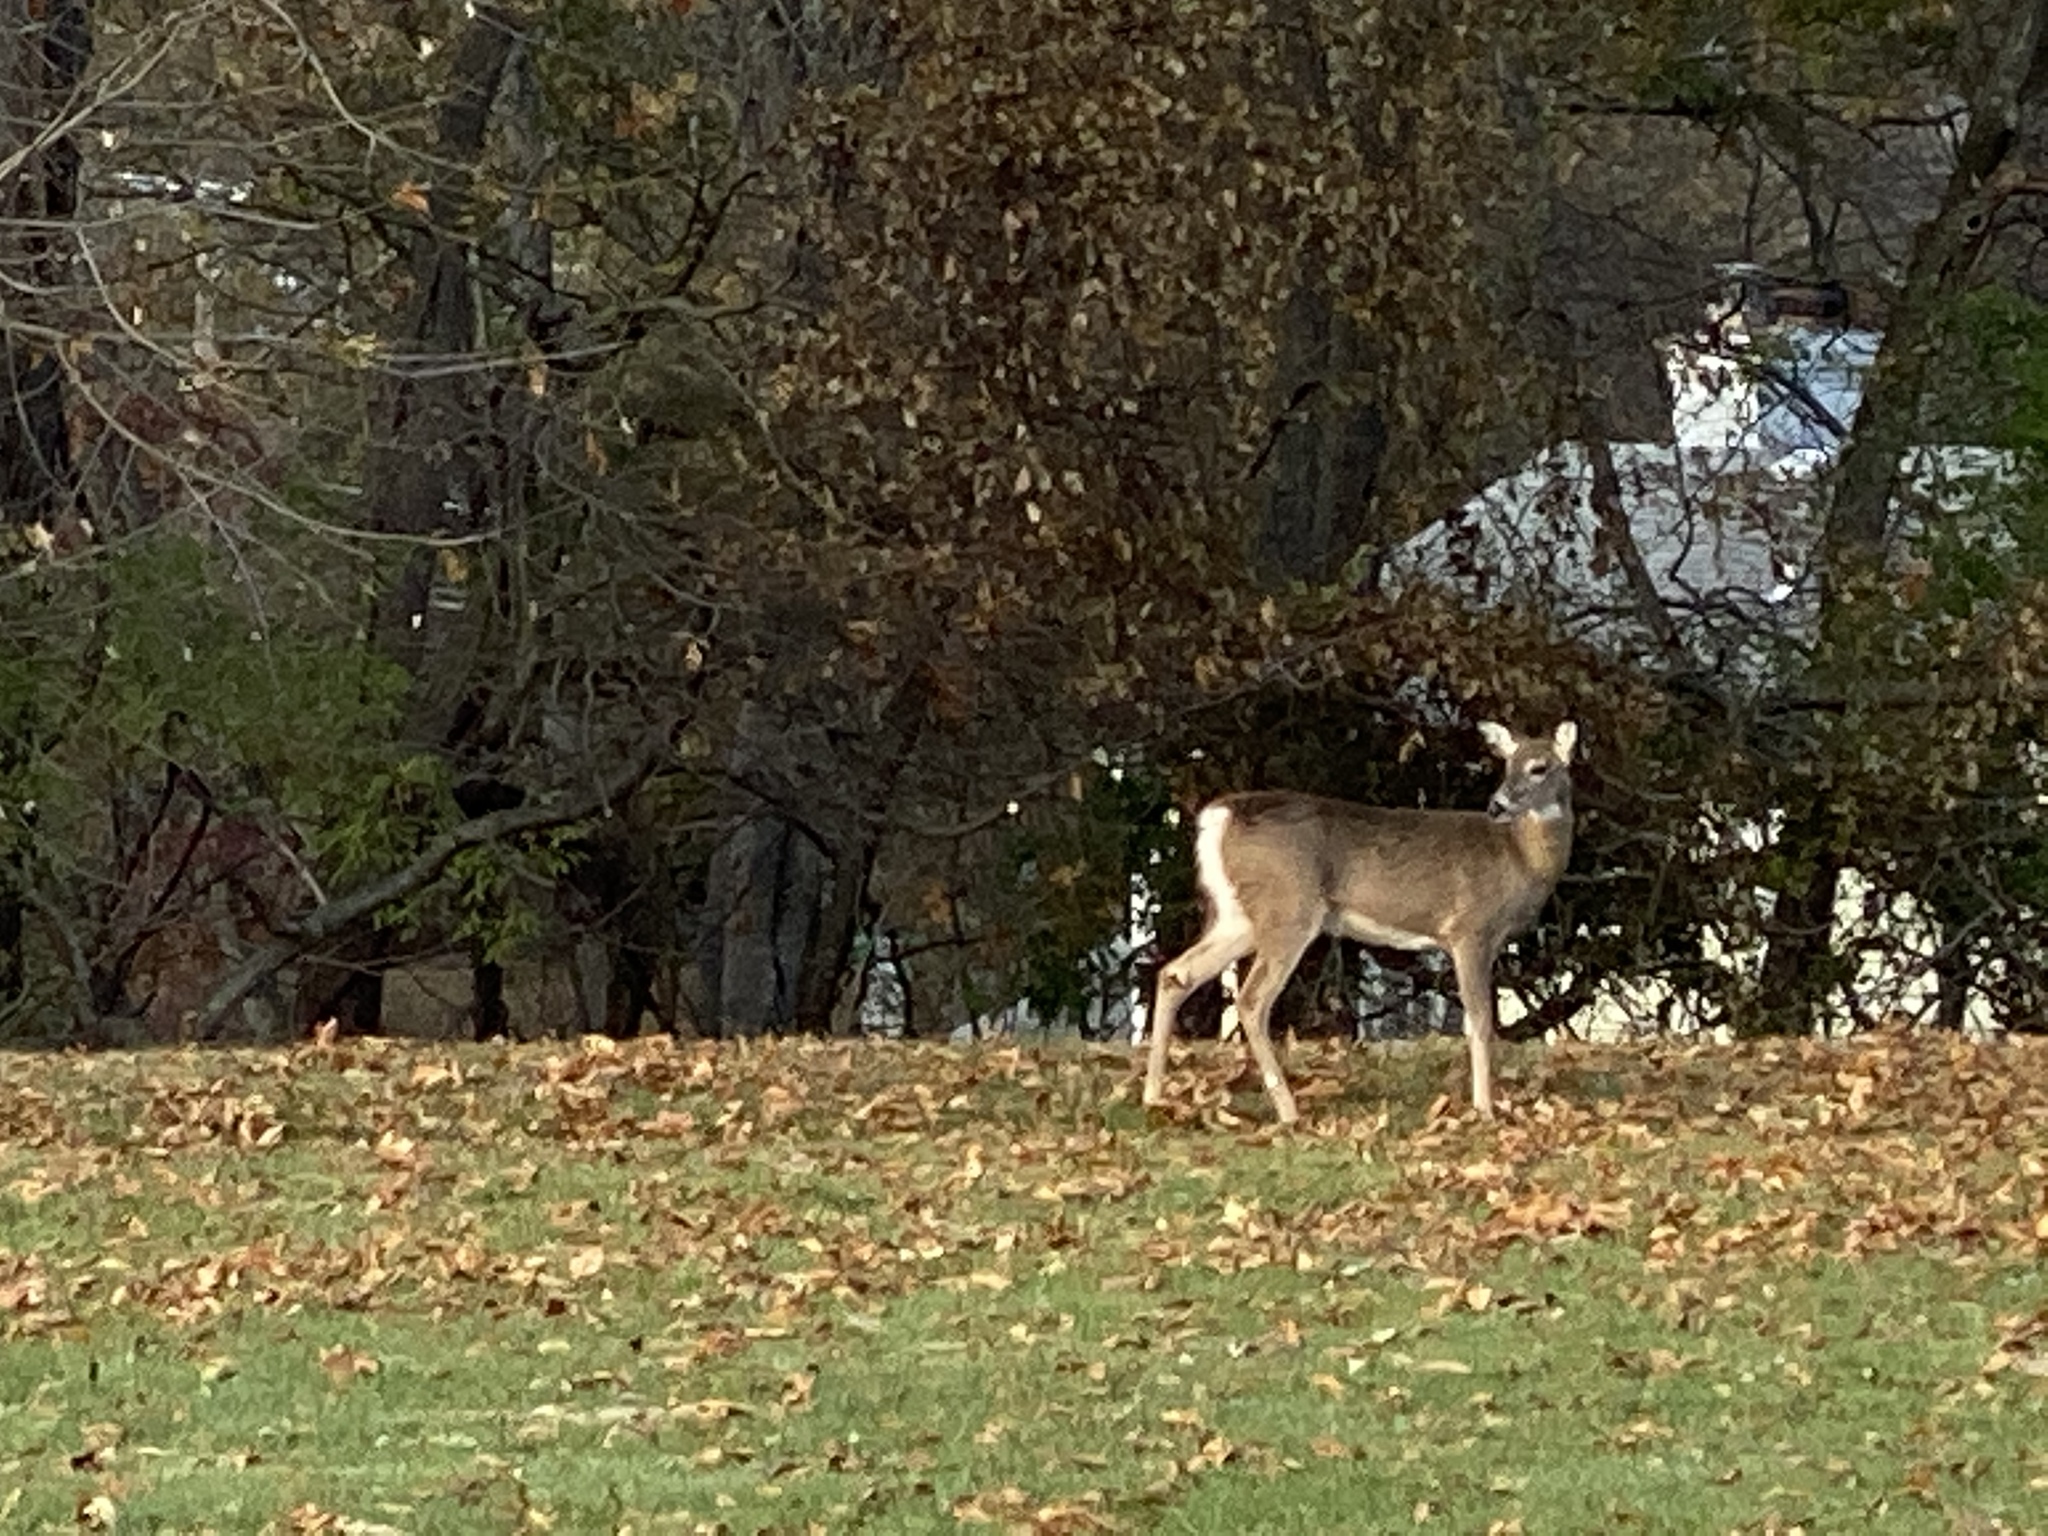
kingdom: Animalia
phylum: Chordata
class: Mammalia
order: Artiodactyla
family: Cervidae
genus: Odocoileus
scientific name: Odocoileus virginianus
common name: White-tailed deer
